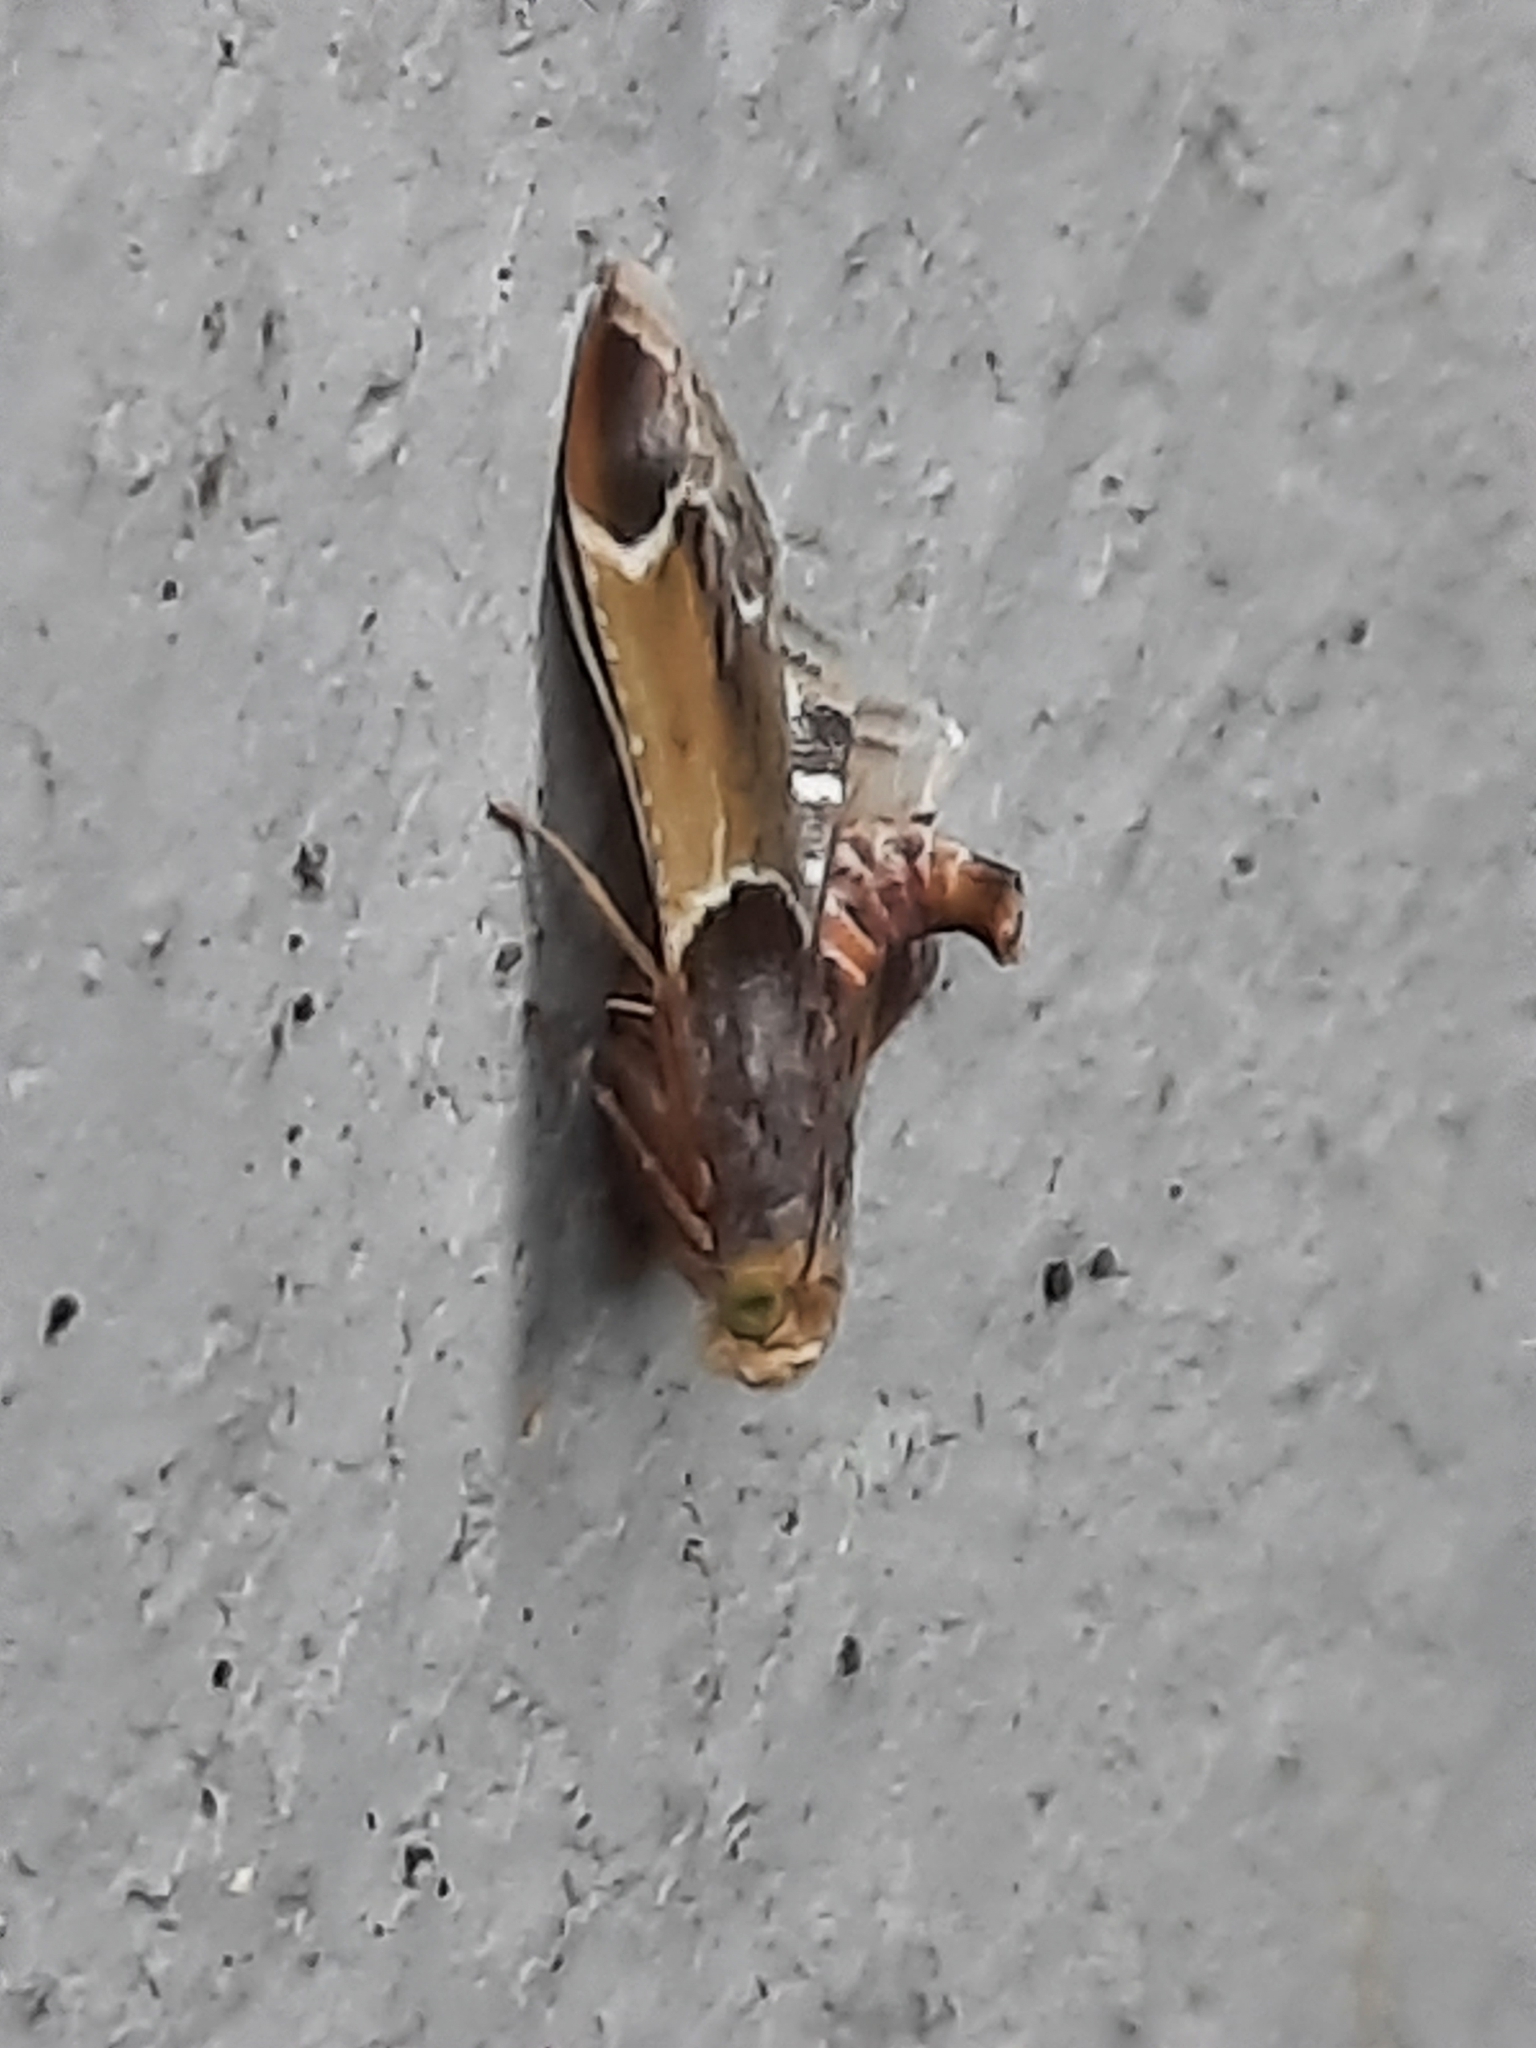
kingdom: Animalia
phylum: Arthropoda
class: Insecta
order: Lepidoptera
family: Pyralidae
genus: Pyralis
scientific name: Pyralis farinalis
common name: Meal moth
